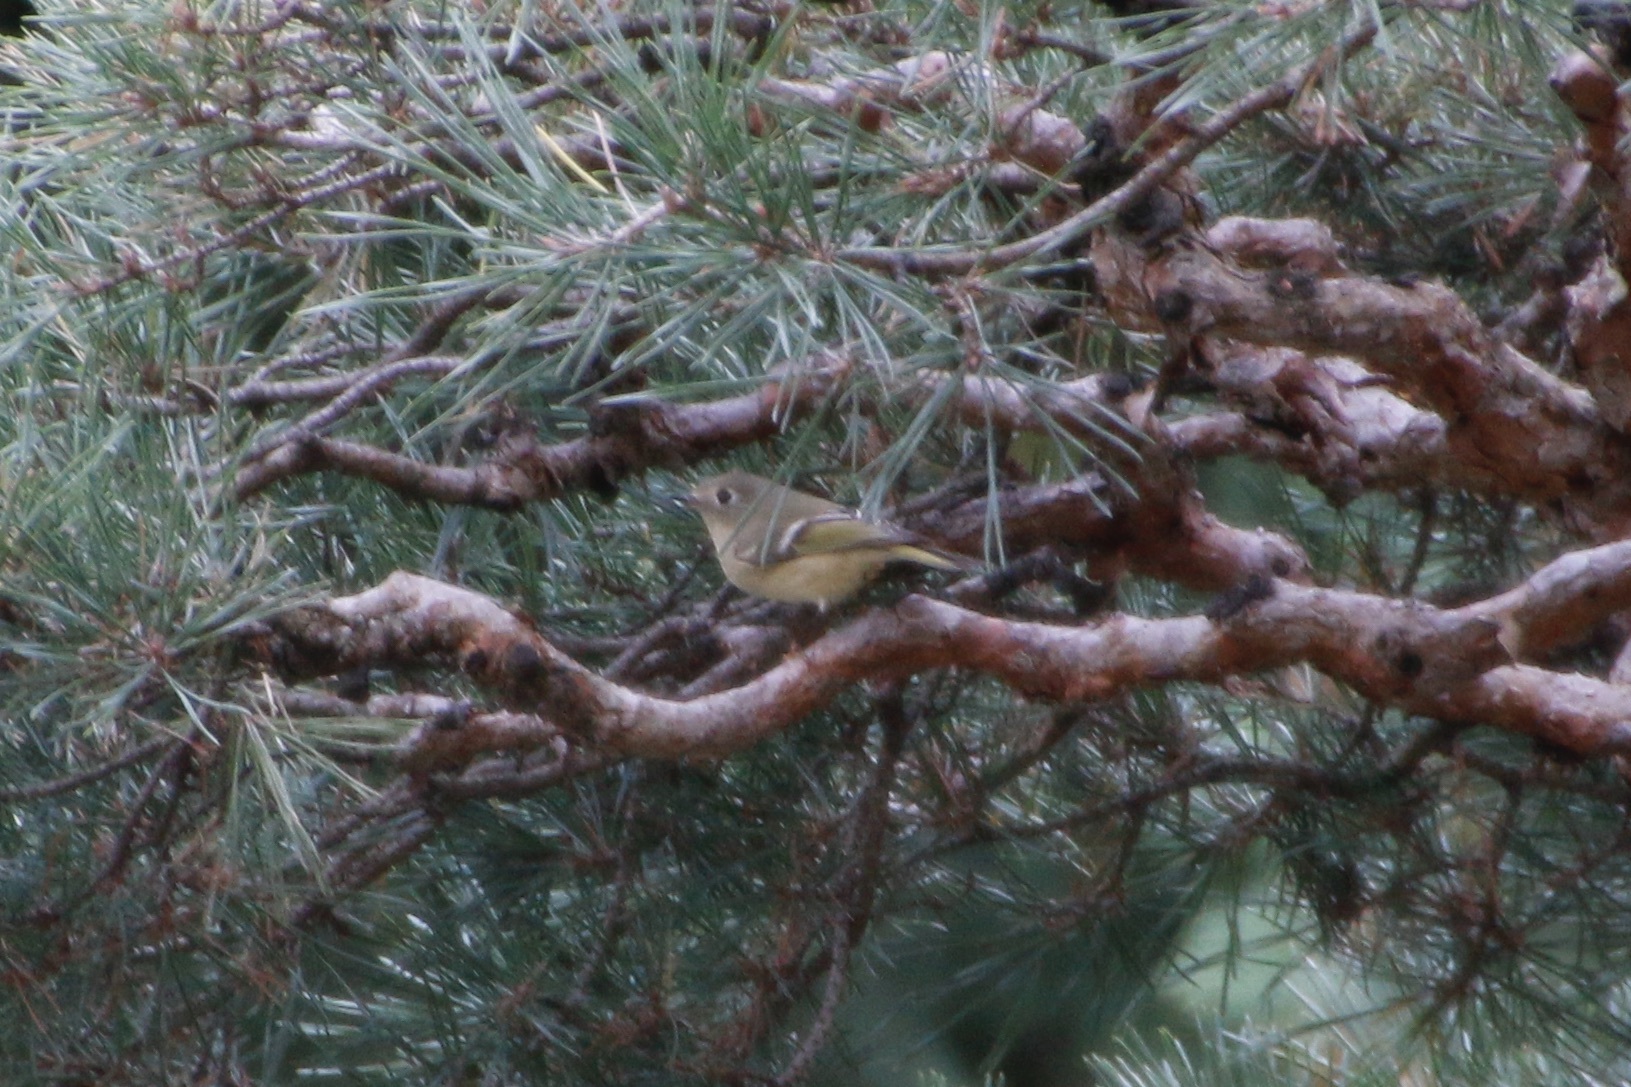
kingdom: Animalia
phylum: Chordata
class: Aves
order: Passeriformes
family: Regulidae
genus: Regulus
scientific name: Regulus calendula
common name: Ruby-crowned kinglet
